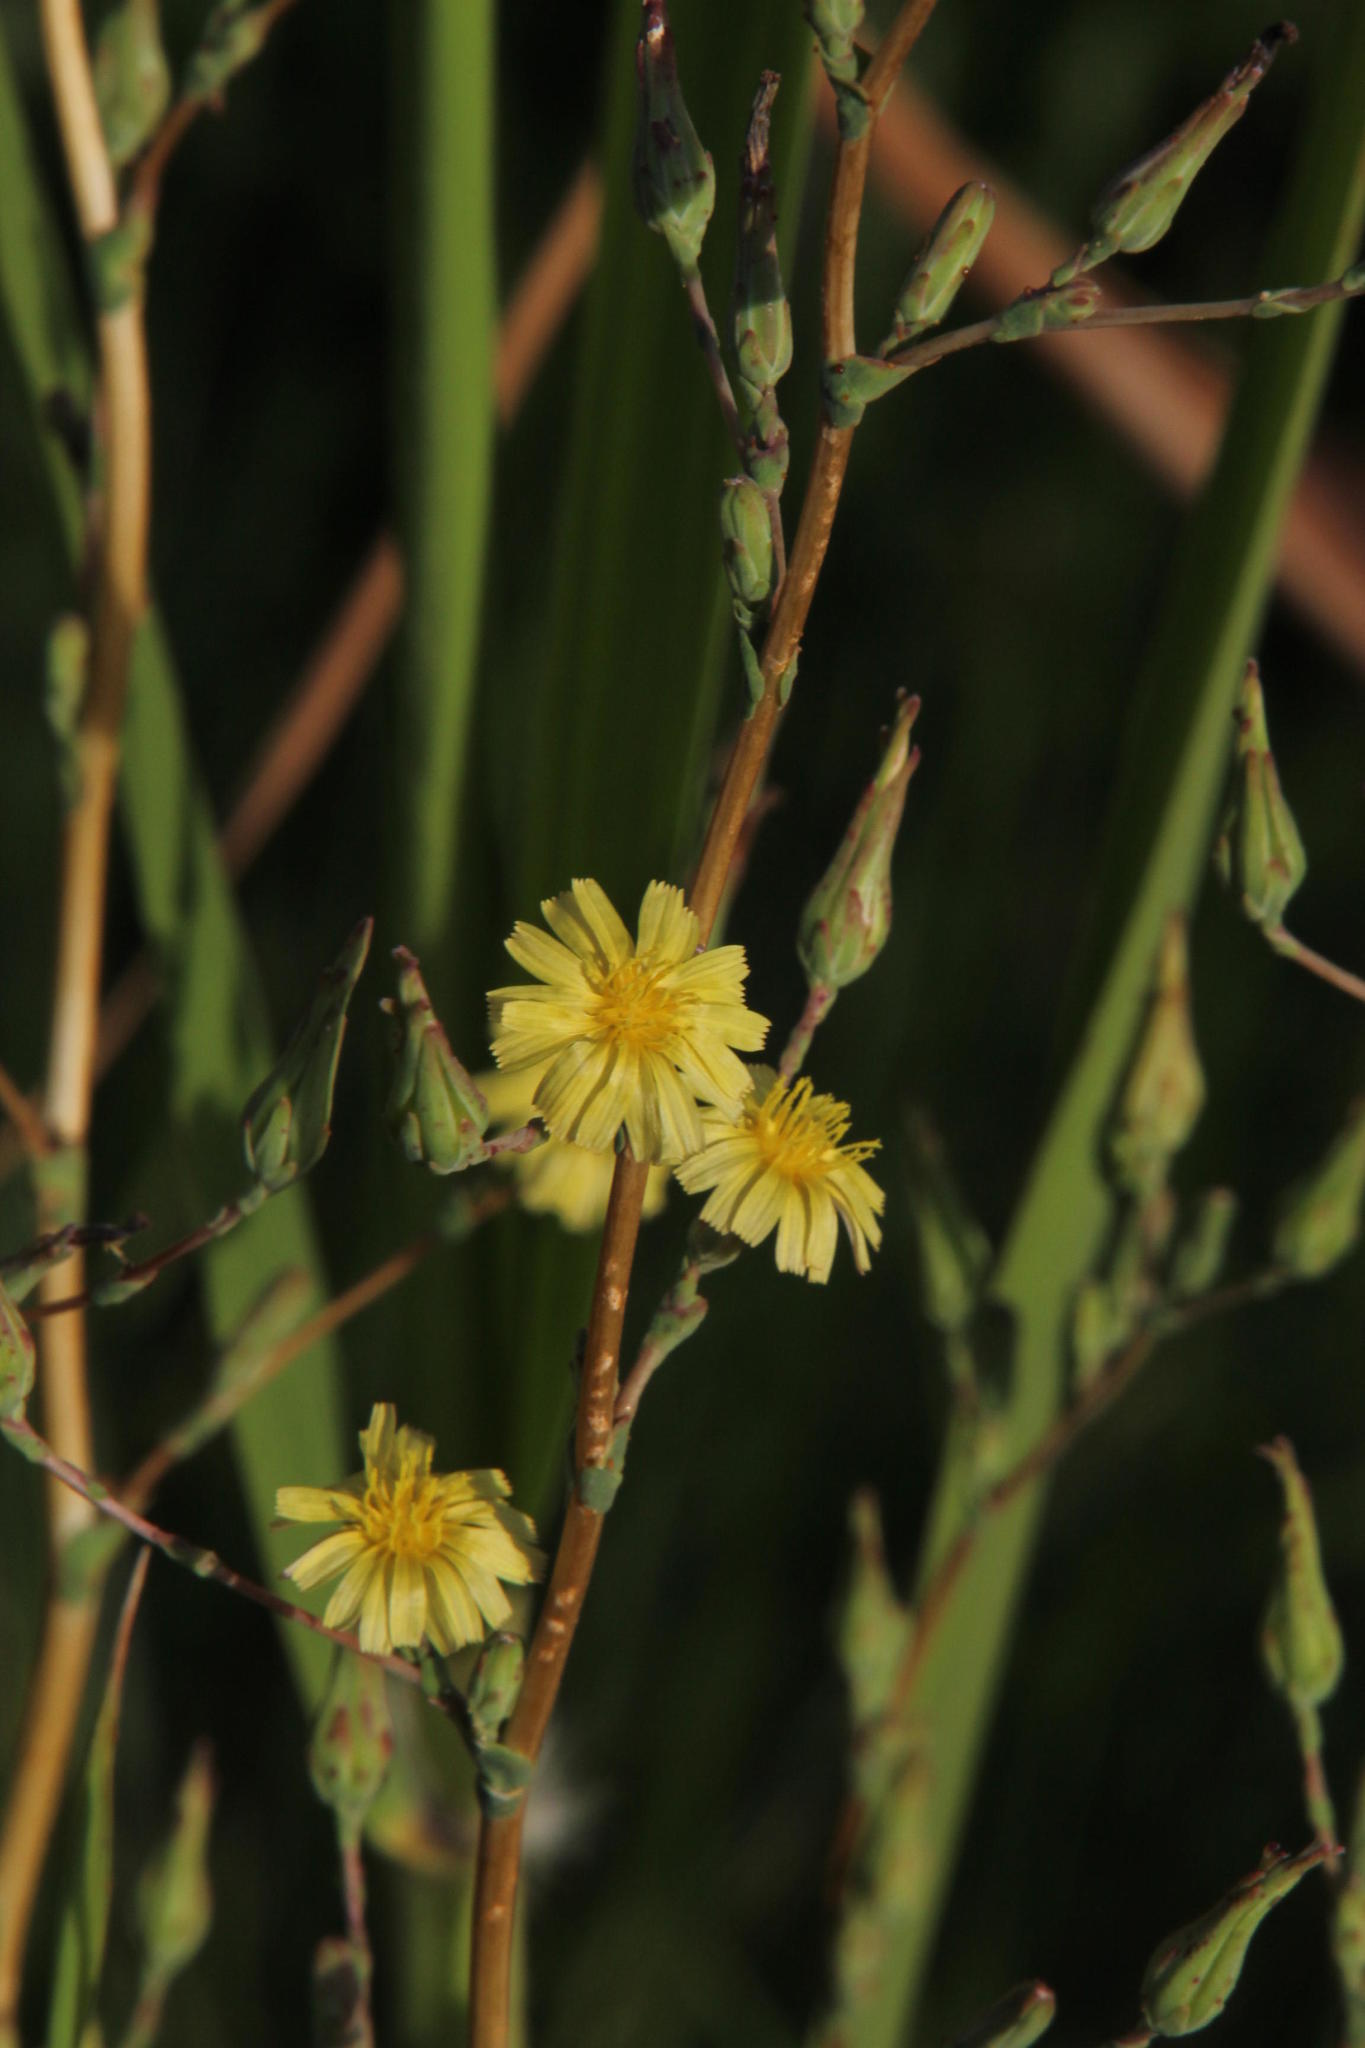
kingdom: Plantae
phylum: Tracheophyta
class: Magnoliopsida
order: Asterales
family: Asteraceae
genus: Helminthotheca
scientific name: Helminthotheca echioides
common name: Ox-tongue
